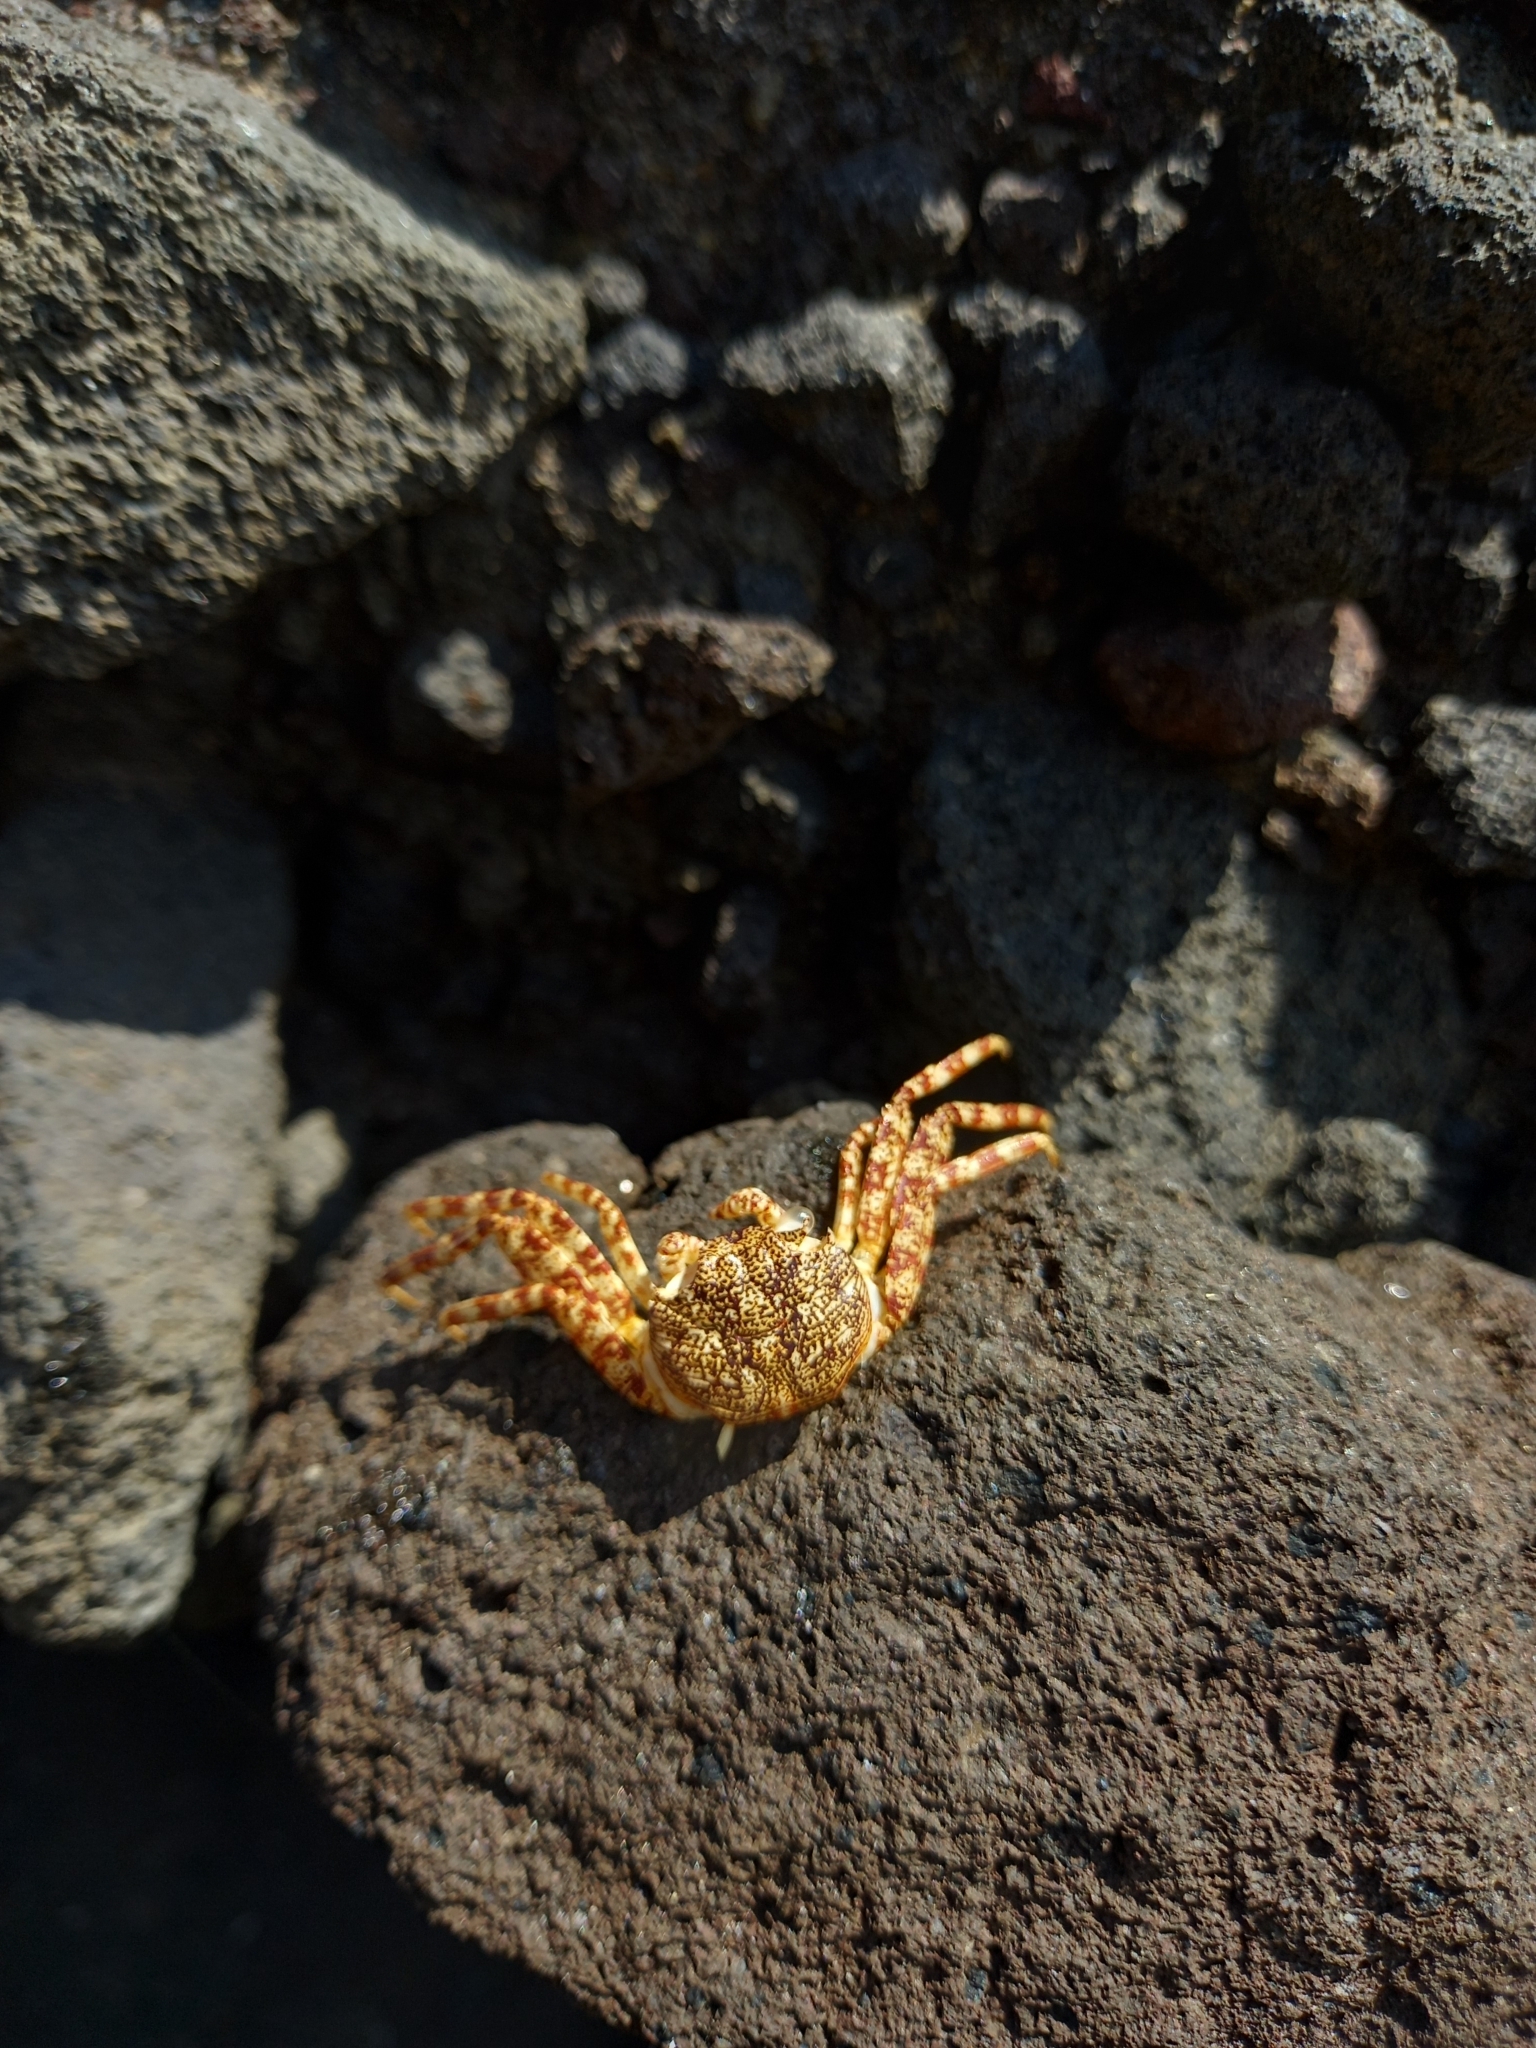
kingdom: Animalia
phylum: Arthropoda
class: Malacostraca
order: Decapoda
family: Grapsidae
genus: Grapsus
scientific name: Grapsus grapsus
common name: Sally lightfoot
